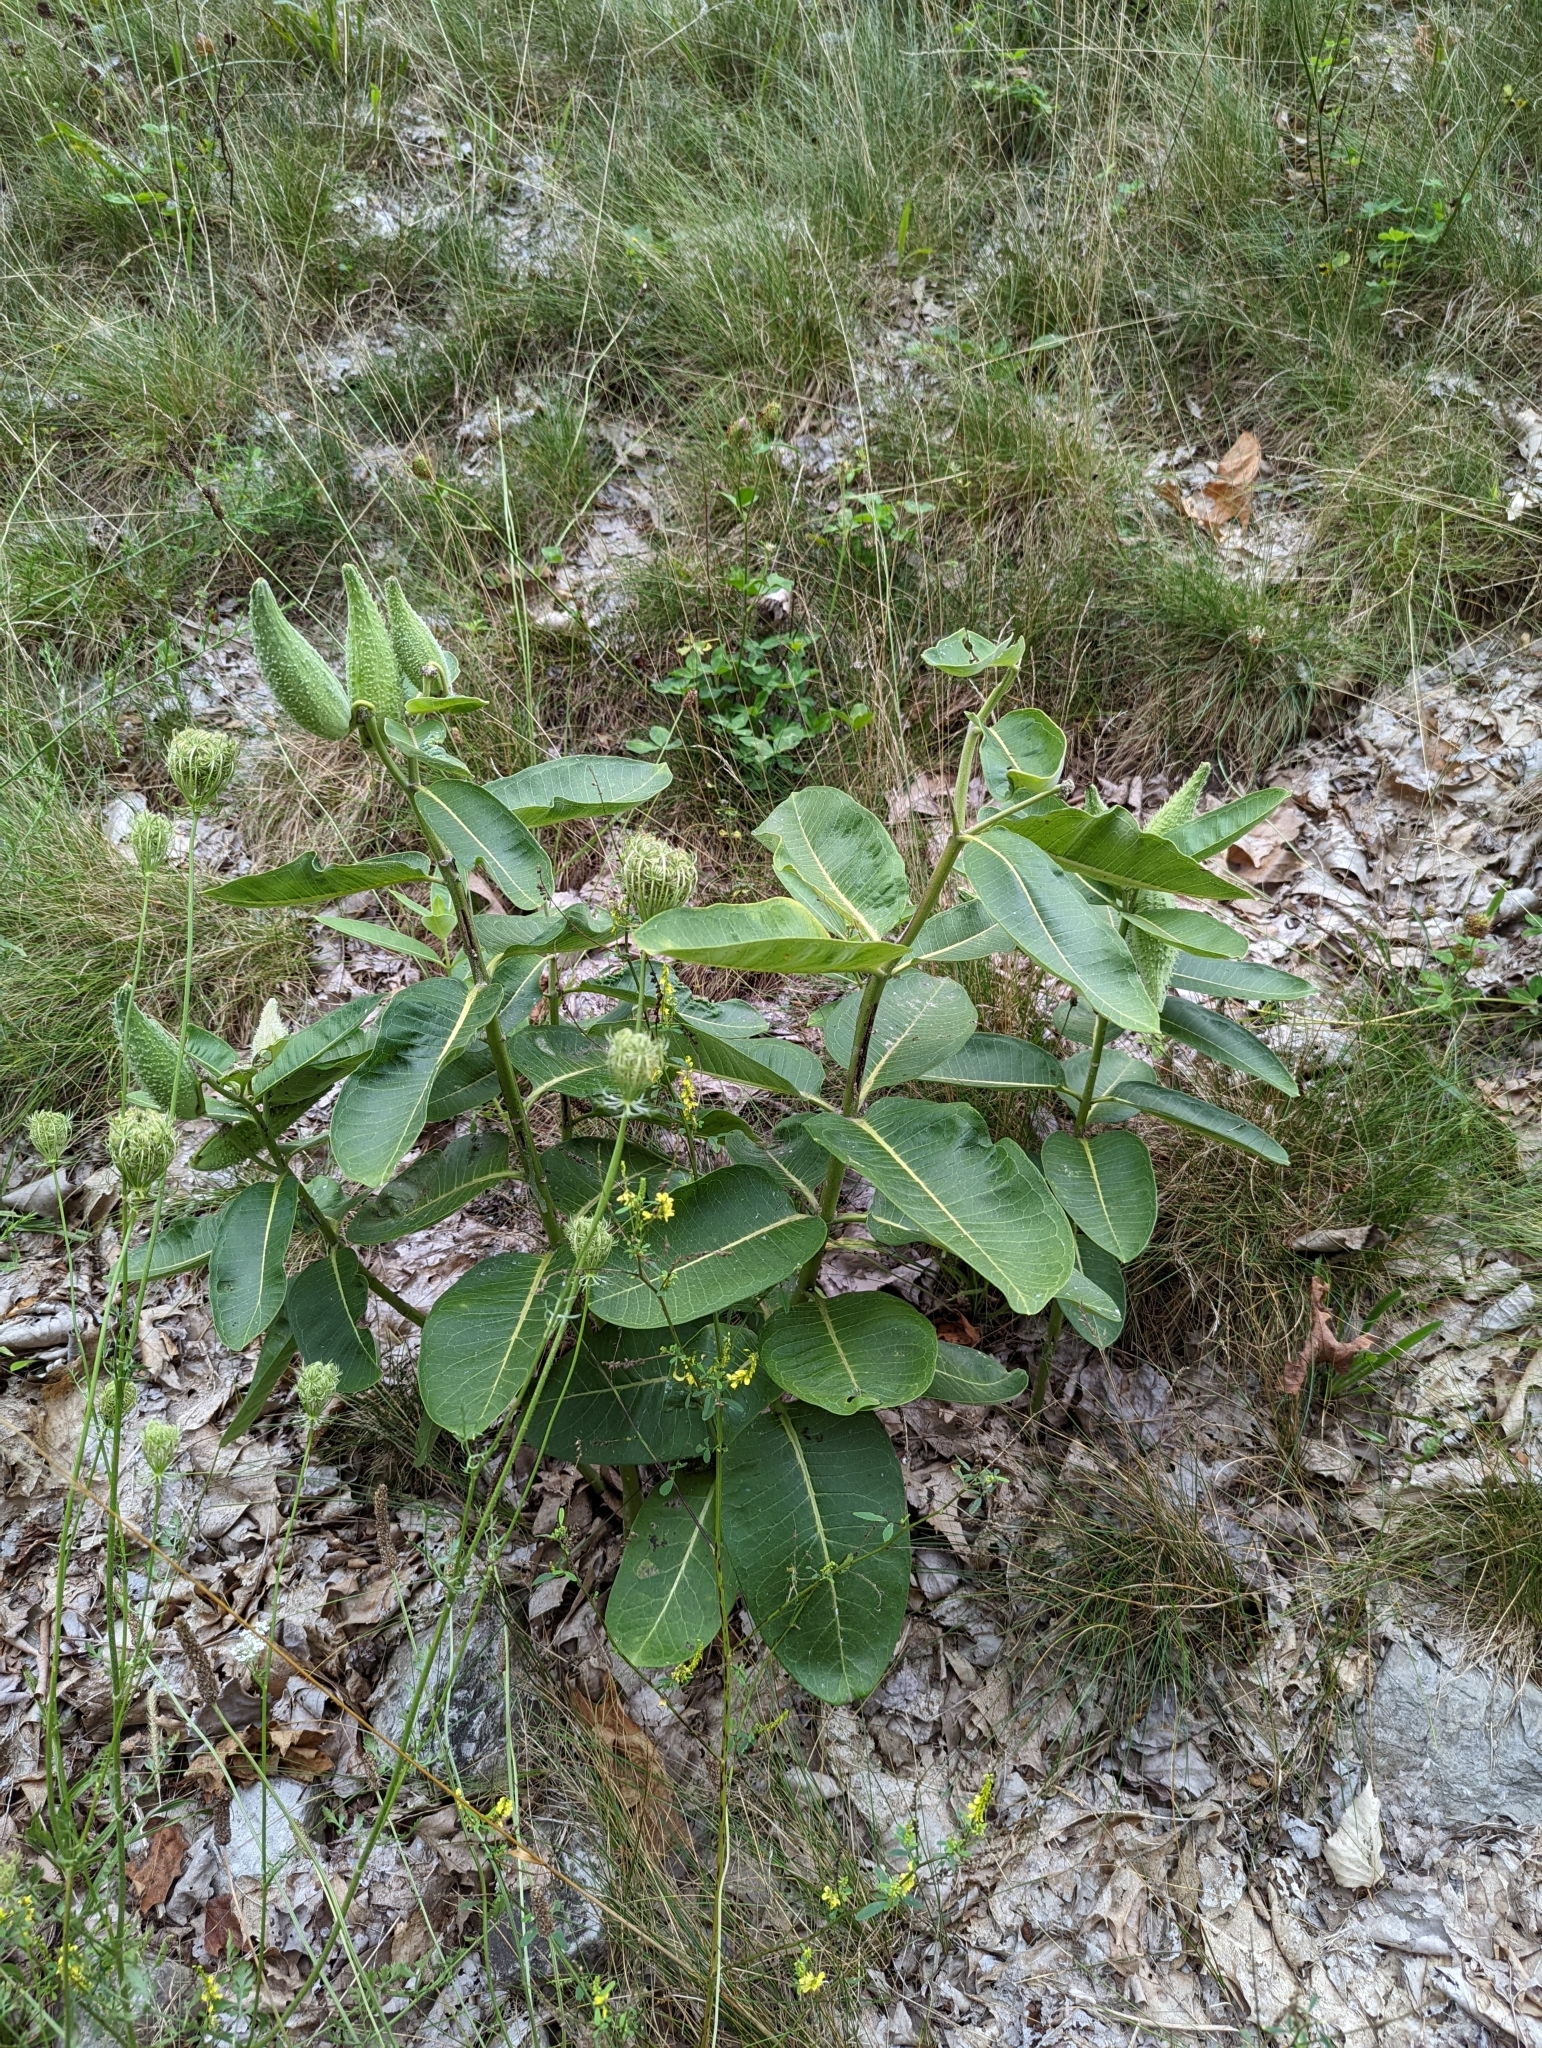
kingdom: Plantae
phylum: Tracheophyta
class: Magnoliopsida
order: Gentianales
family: Apocynaceae
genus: Asclepias
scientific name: Asclepias syriaca
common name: Common milkweed
